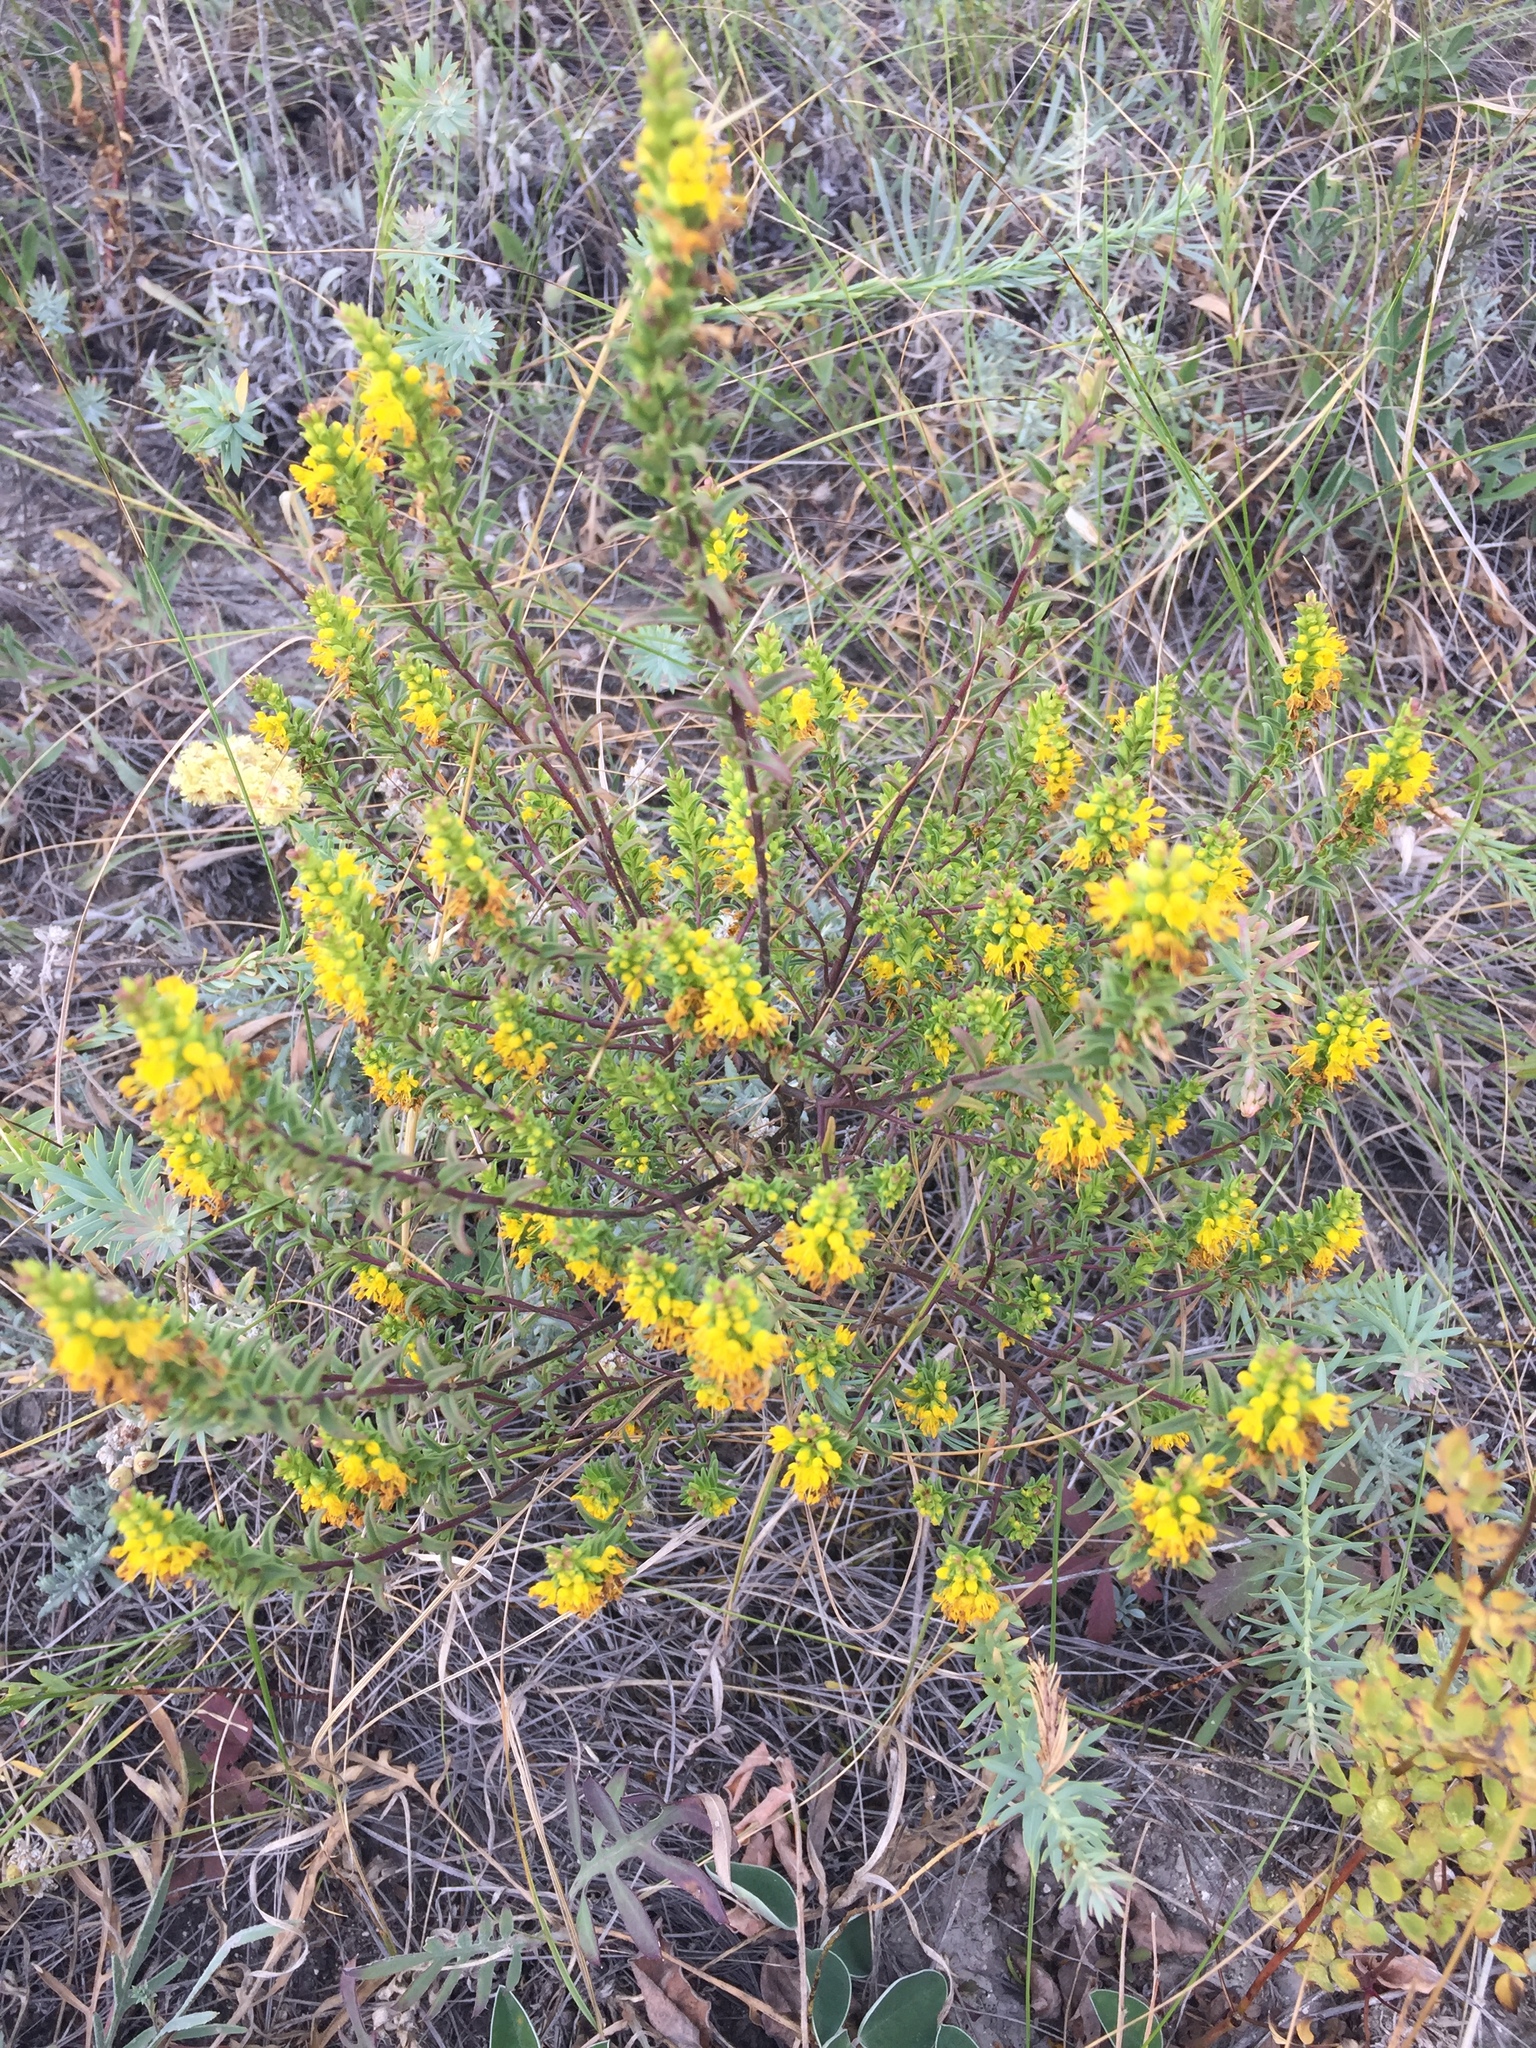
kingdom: Plantae
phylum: Tracheophyta
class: Magnoliopsida
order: Lamiales
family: Orobanchaceae
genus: Odontites
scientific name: Odontites luteus
